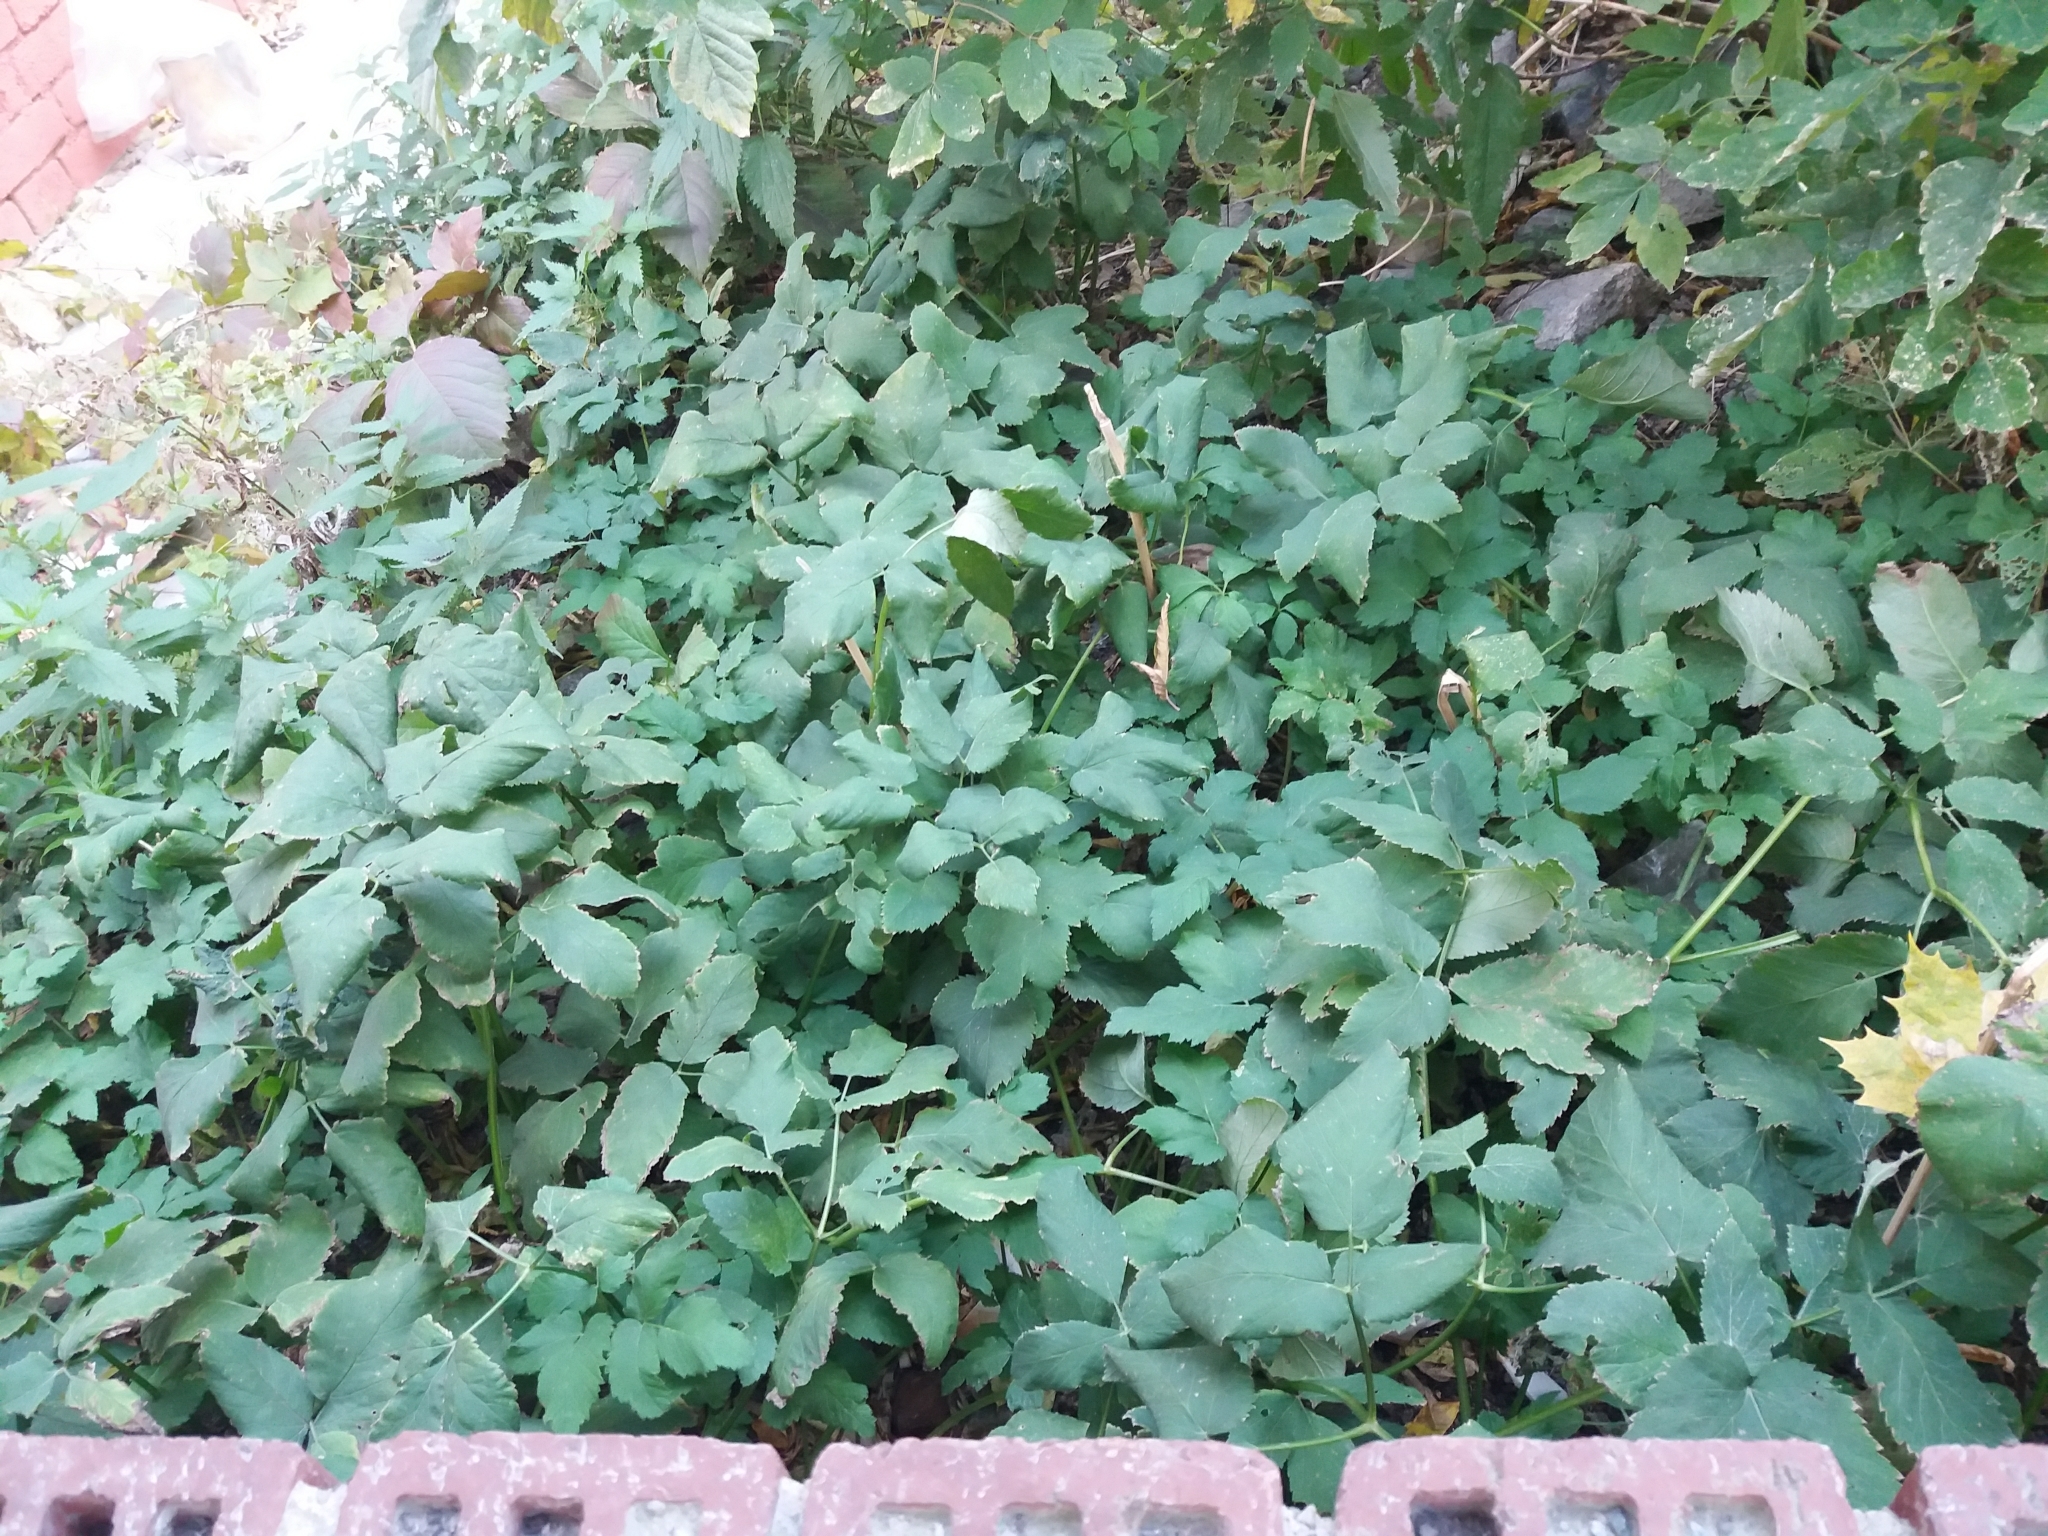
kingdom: Plantae
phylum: Tracheophyta
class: Magnoliopsida
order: Apiales
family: Apiaceae
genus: Aegopodium
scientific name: Aegopodium podagraria
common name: Ground-elder
